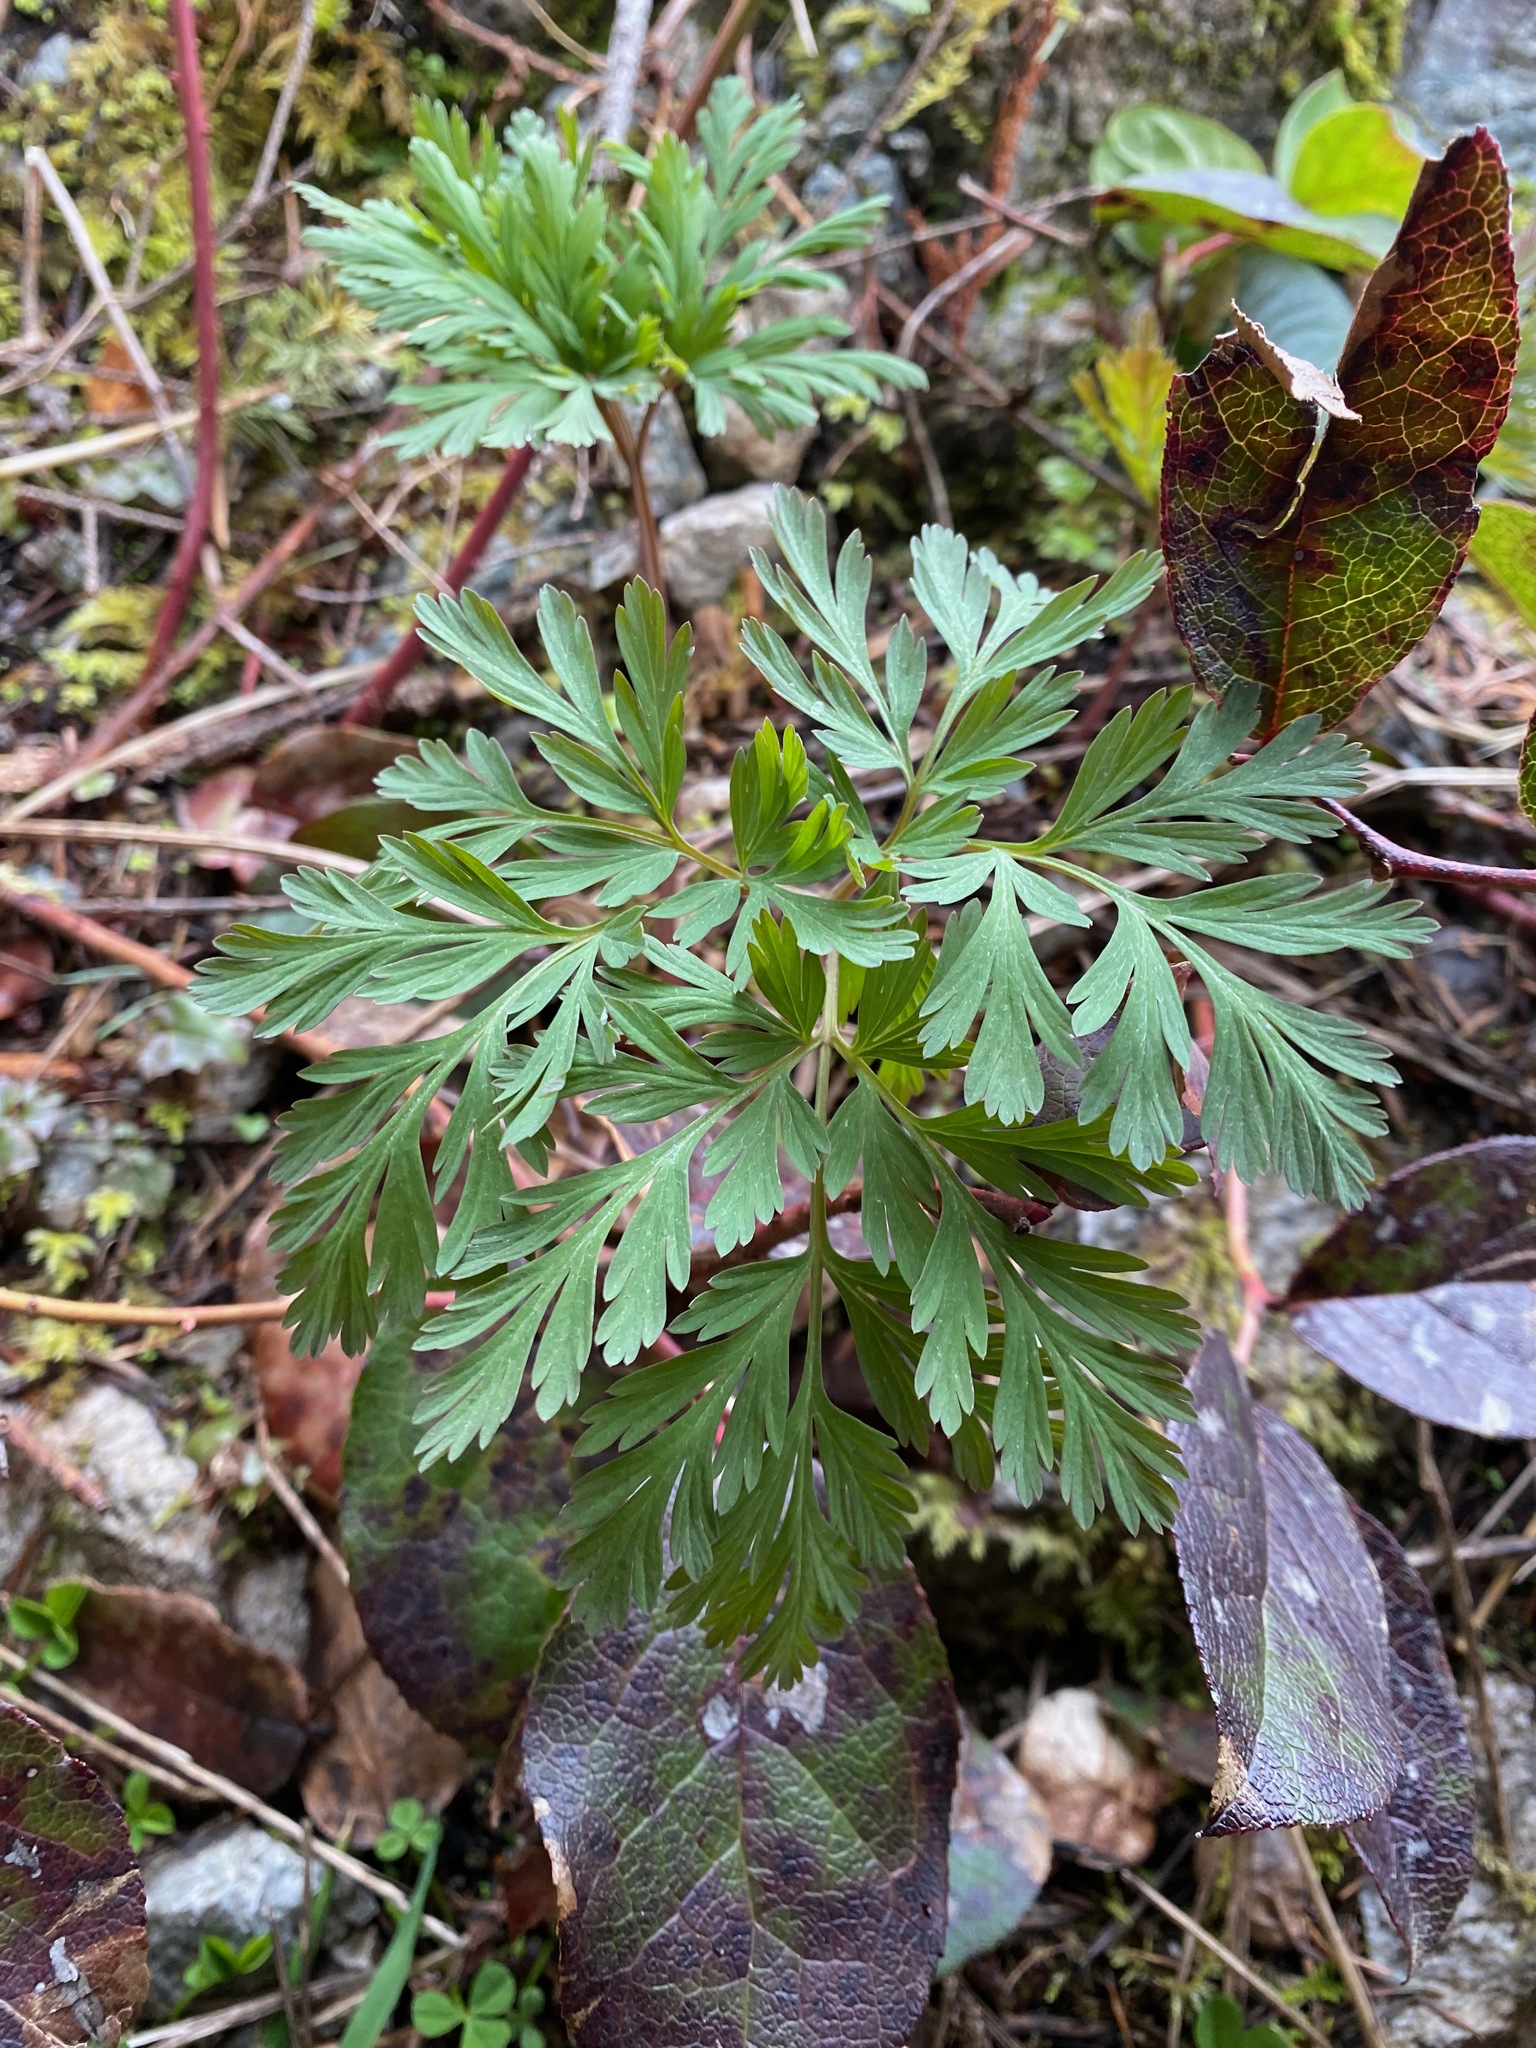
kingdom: Plantae
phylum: Tracheophyta
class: Magnoliopsida
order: Ranunculales
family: Papaveraceae
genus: Dicentra
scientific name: Dicentra formosa
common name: Bleeding-heart
